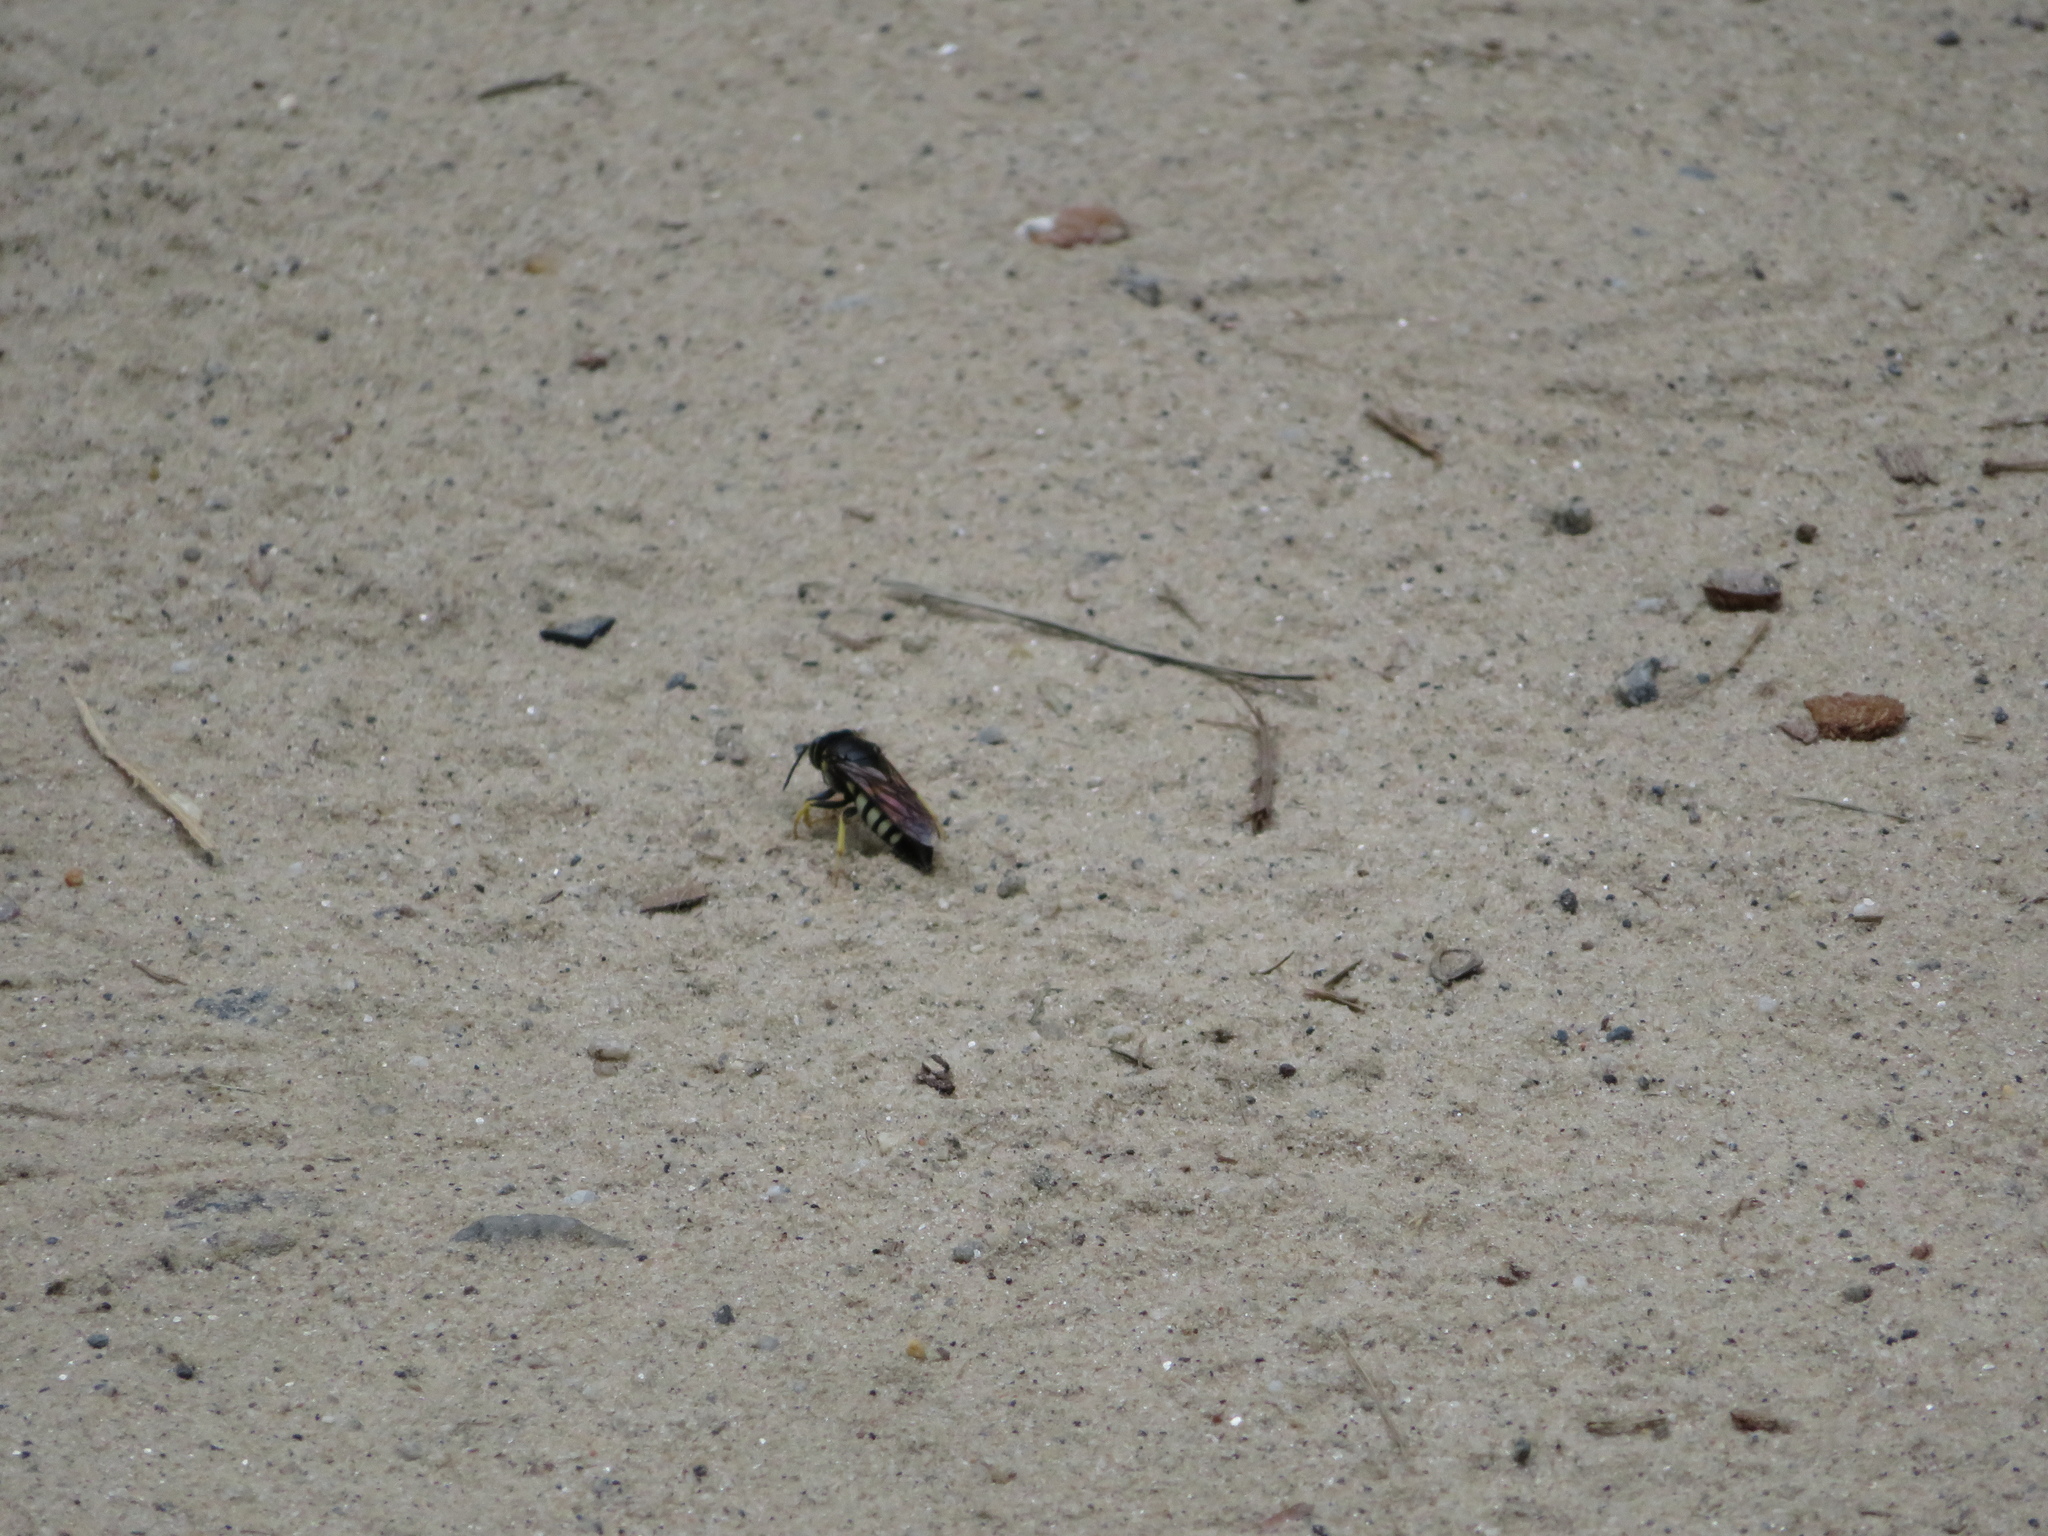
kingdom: Animalia
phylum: Arthropoda
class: Insecta
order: Hymenoptera
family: Crabronidae
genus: Bicyrtes
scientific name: Bicyrtes quadrifasciatus
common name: Four-banded stink bug hunter wasp
